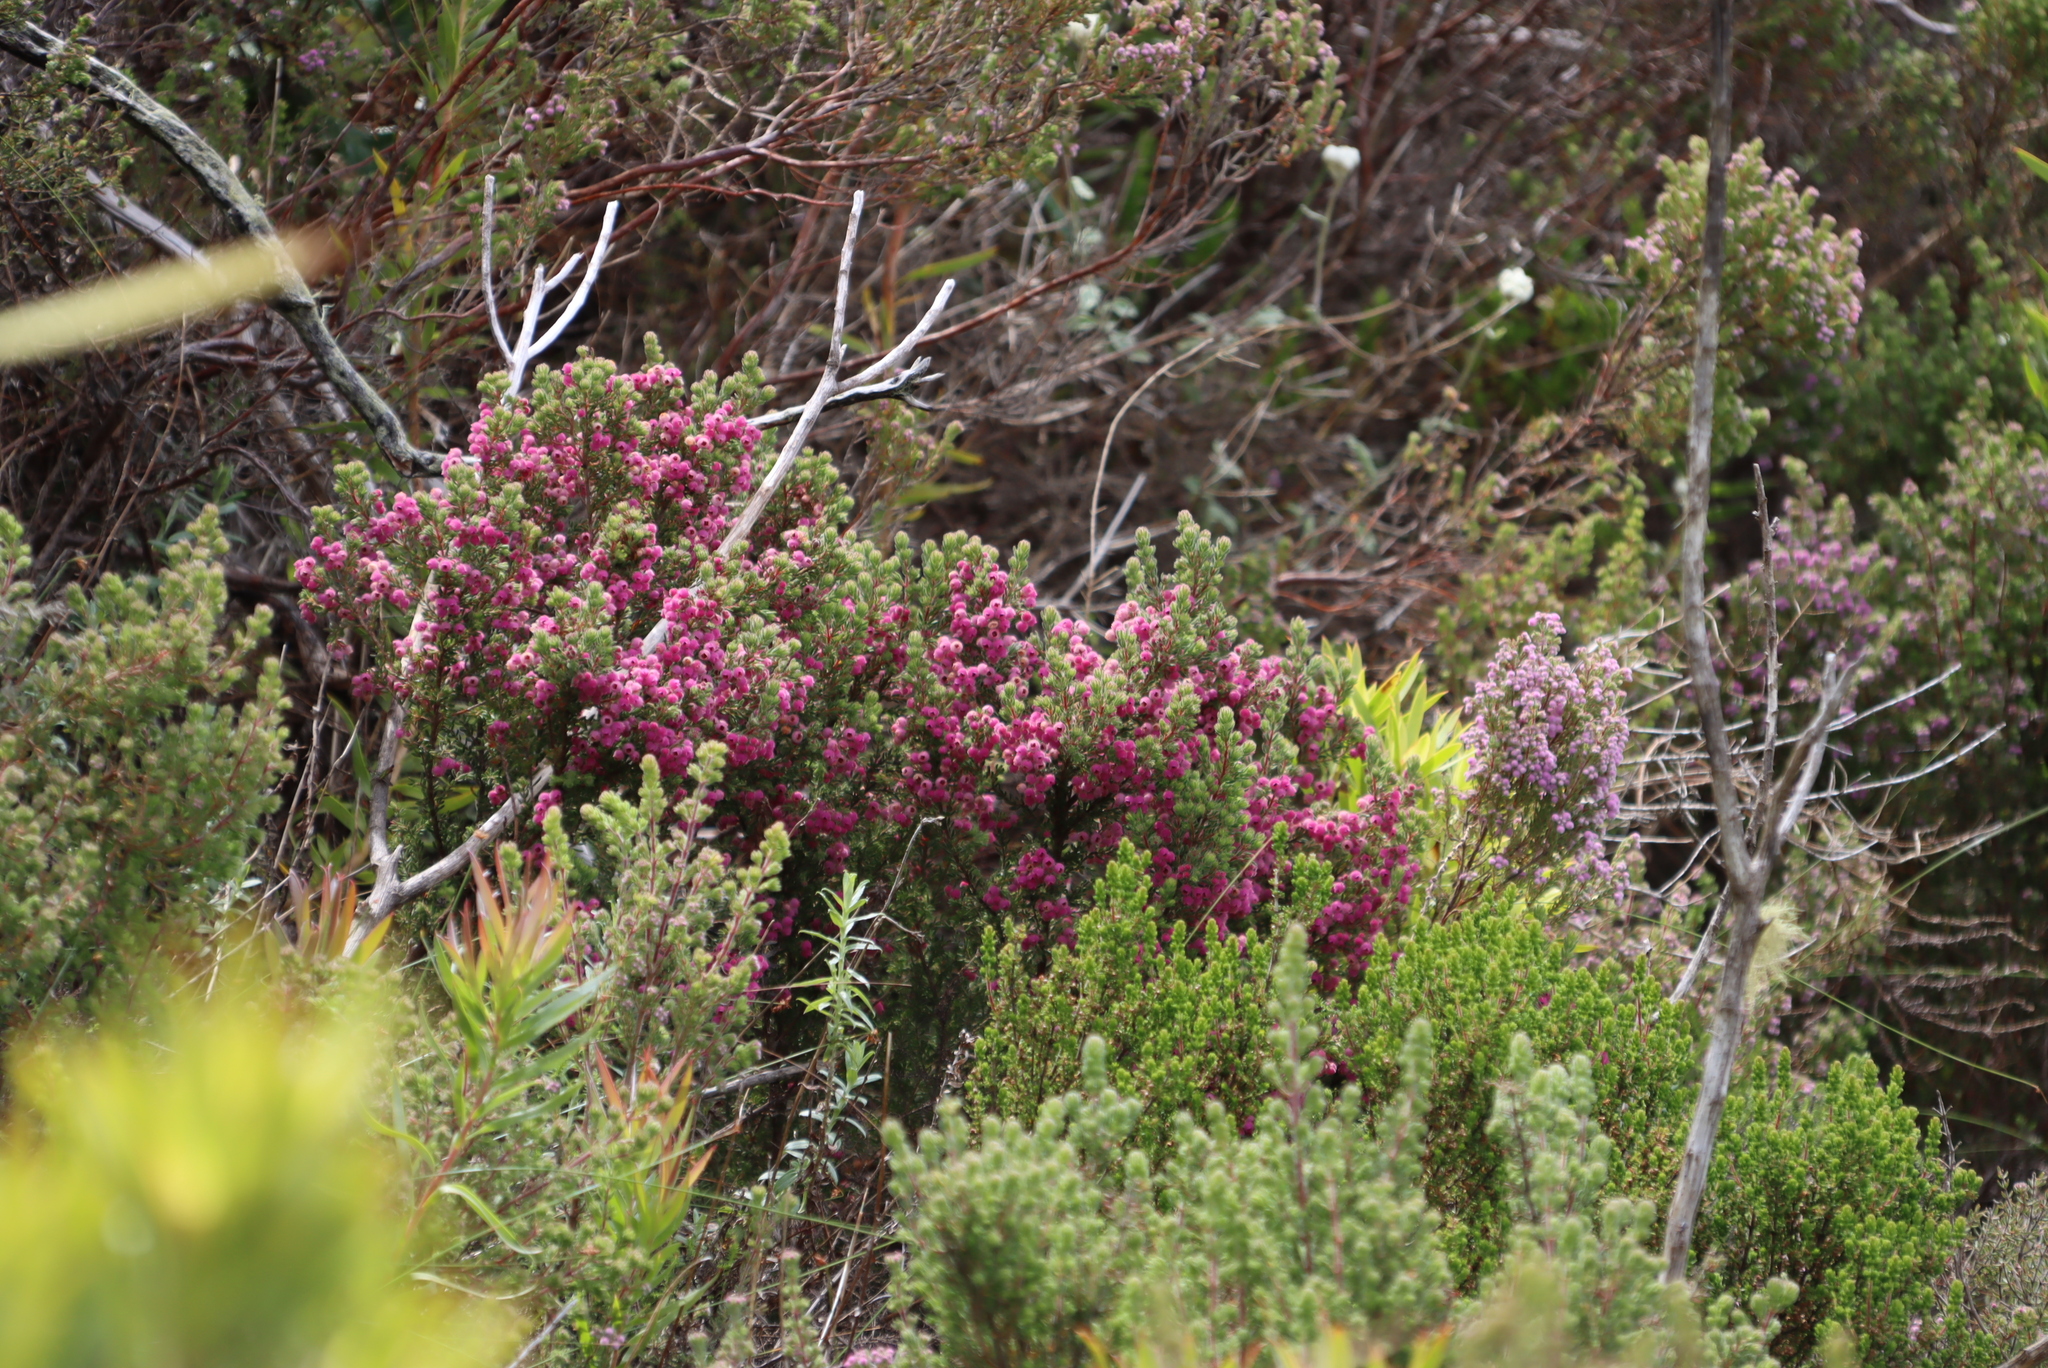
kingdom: Plantae
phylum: Tracheophyta
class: Magnoliopsida
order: Ericales
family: Ericaceae
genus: Erica
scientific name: Erica hirtiflora
